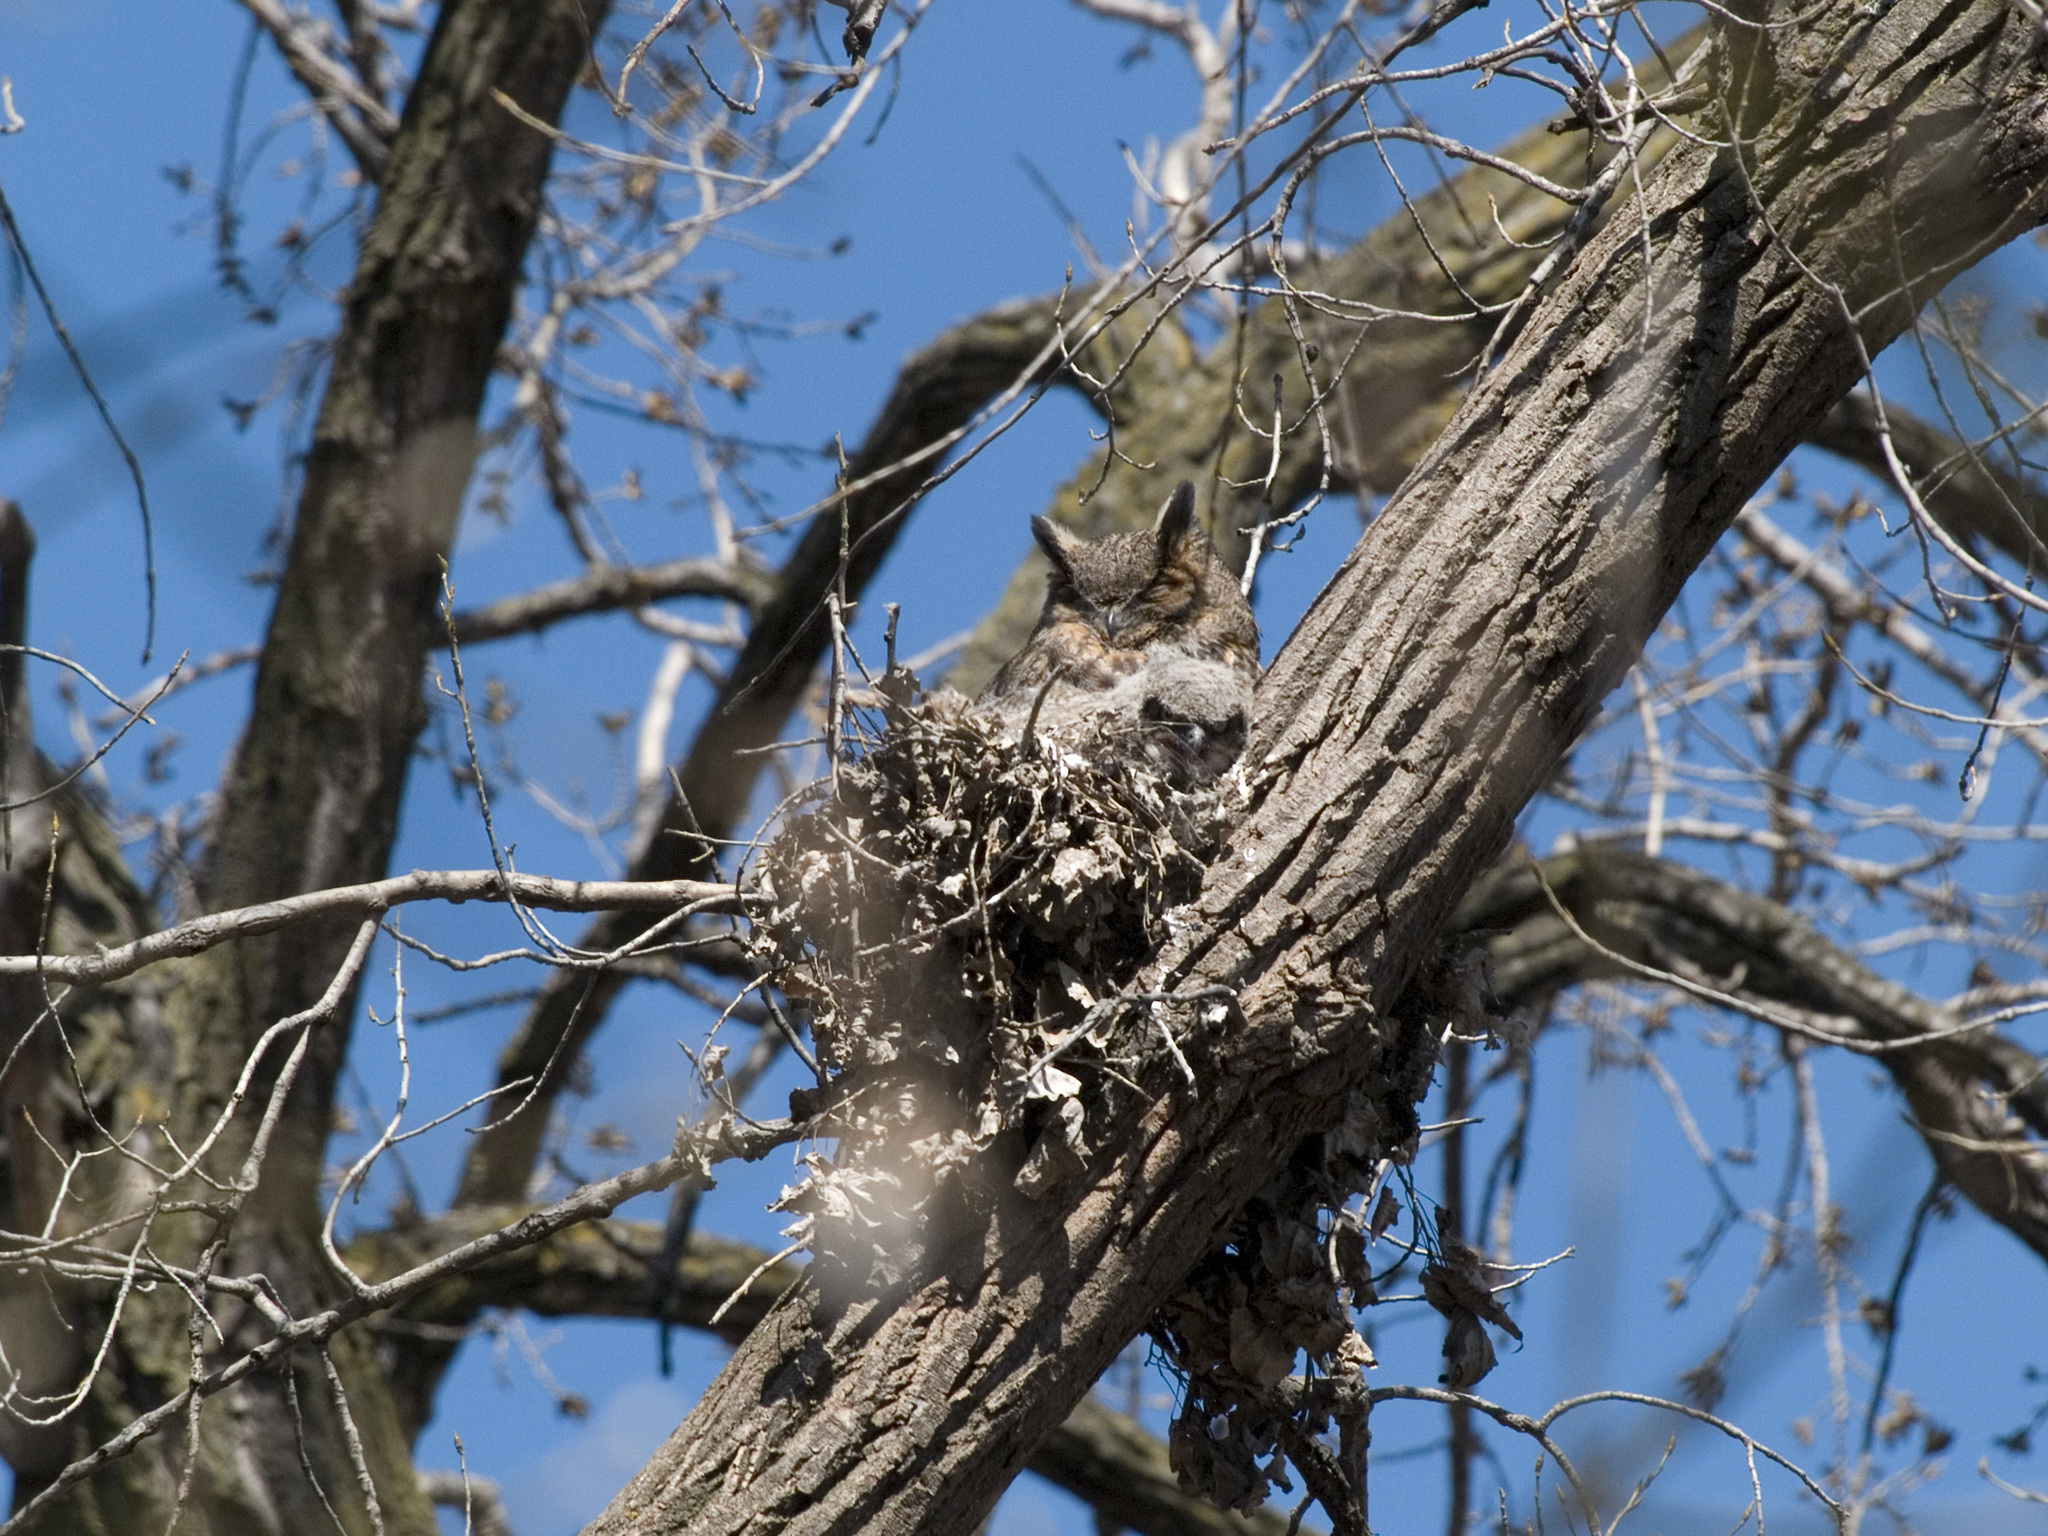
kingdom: Animalia
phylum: Chordata
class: Aves
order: Strigiformes
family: Strigidae
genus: Bubo
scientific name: Bubo virginianus
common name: Great horned owl
